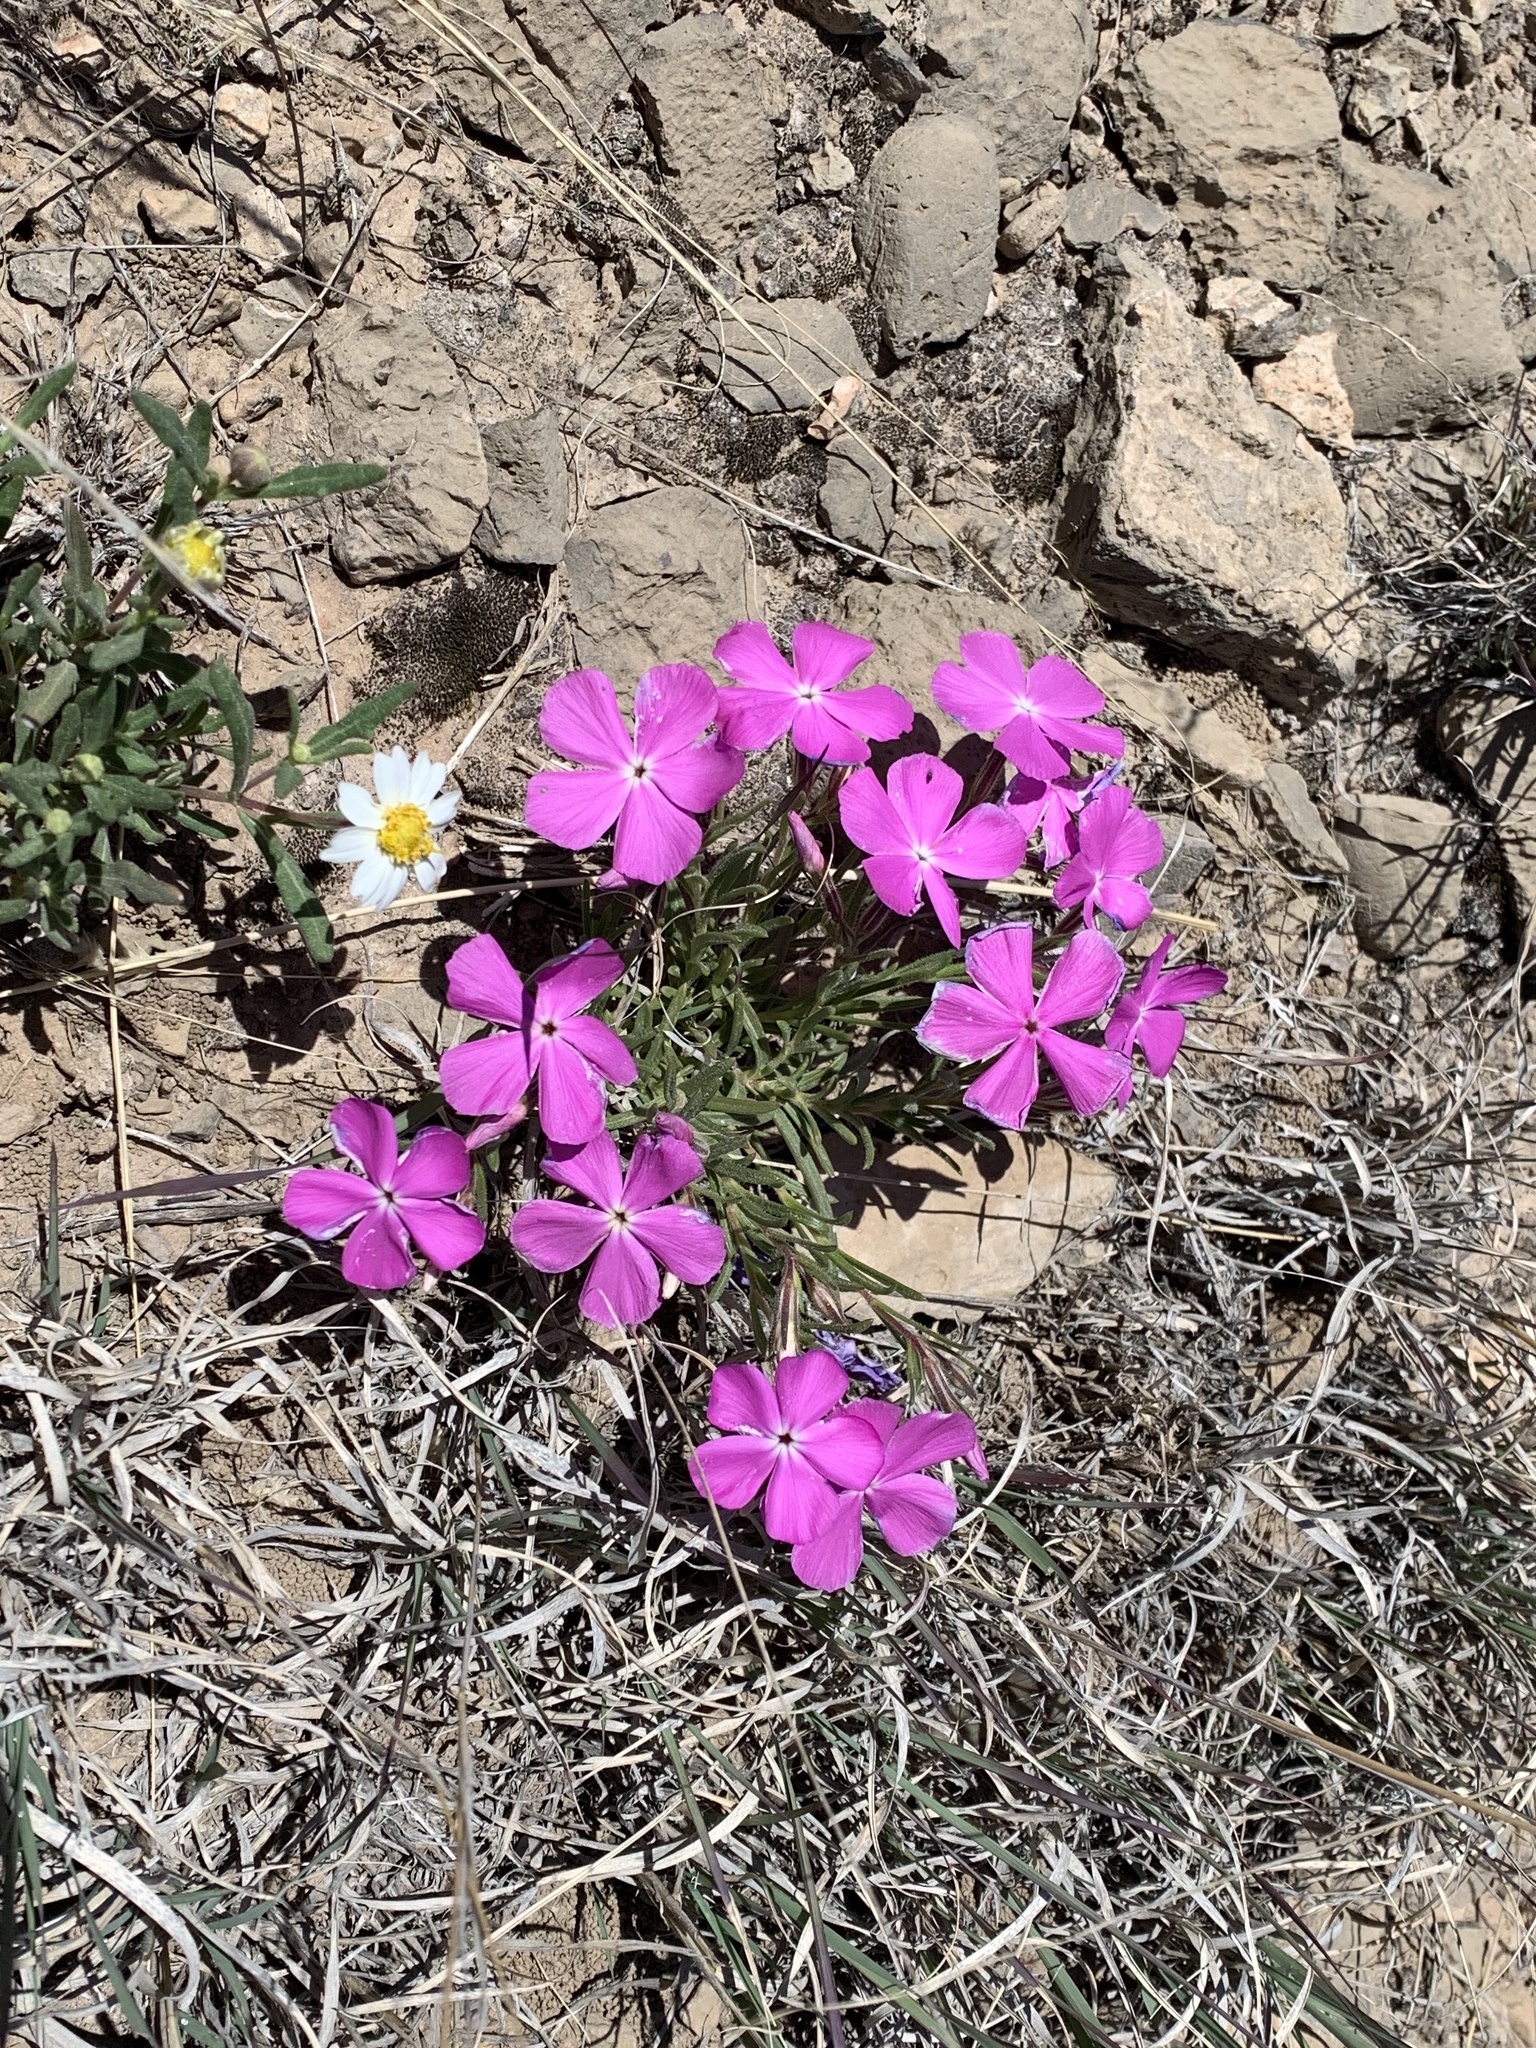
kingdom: Plantae
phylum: Tracheophyta
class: Magnoliopsida
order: Ericales
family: Polemoniaceae
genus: Phlox
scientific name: Phlox nana
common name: Santa fe phlox
